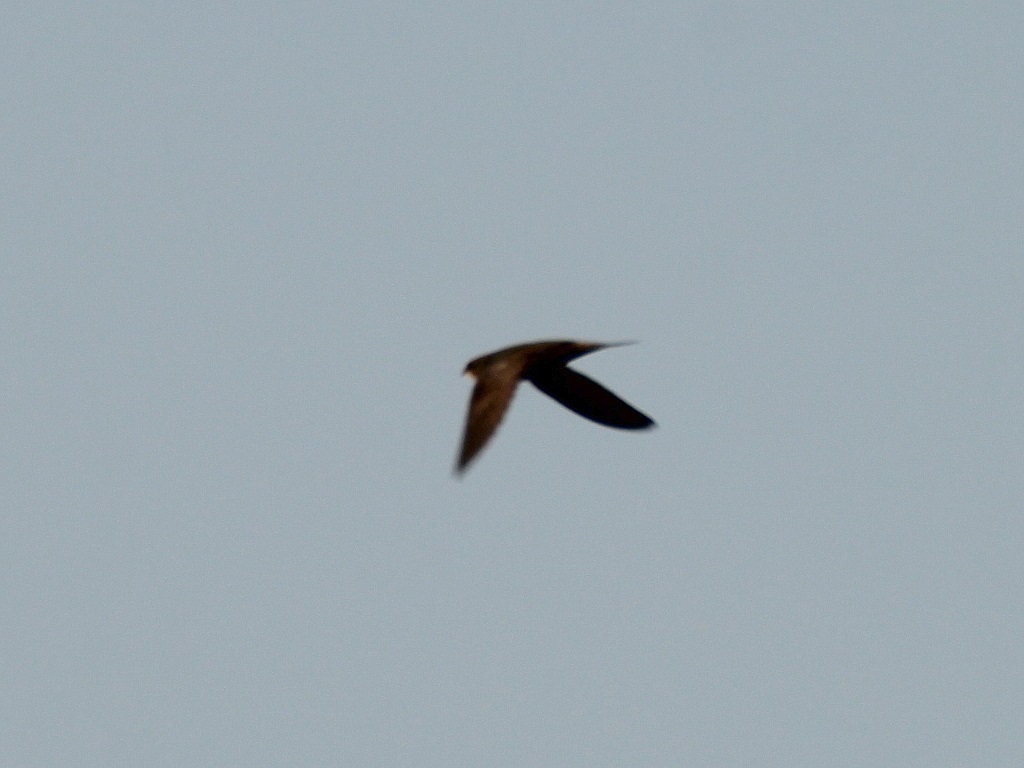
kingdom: Animalia
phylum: Chordata
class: Aves
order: Apodiformes
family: Apodidae
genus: Apus
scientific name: Apus apus
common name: Common swift
